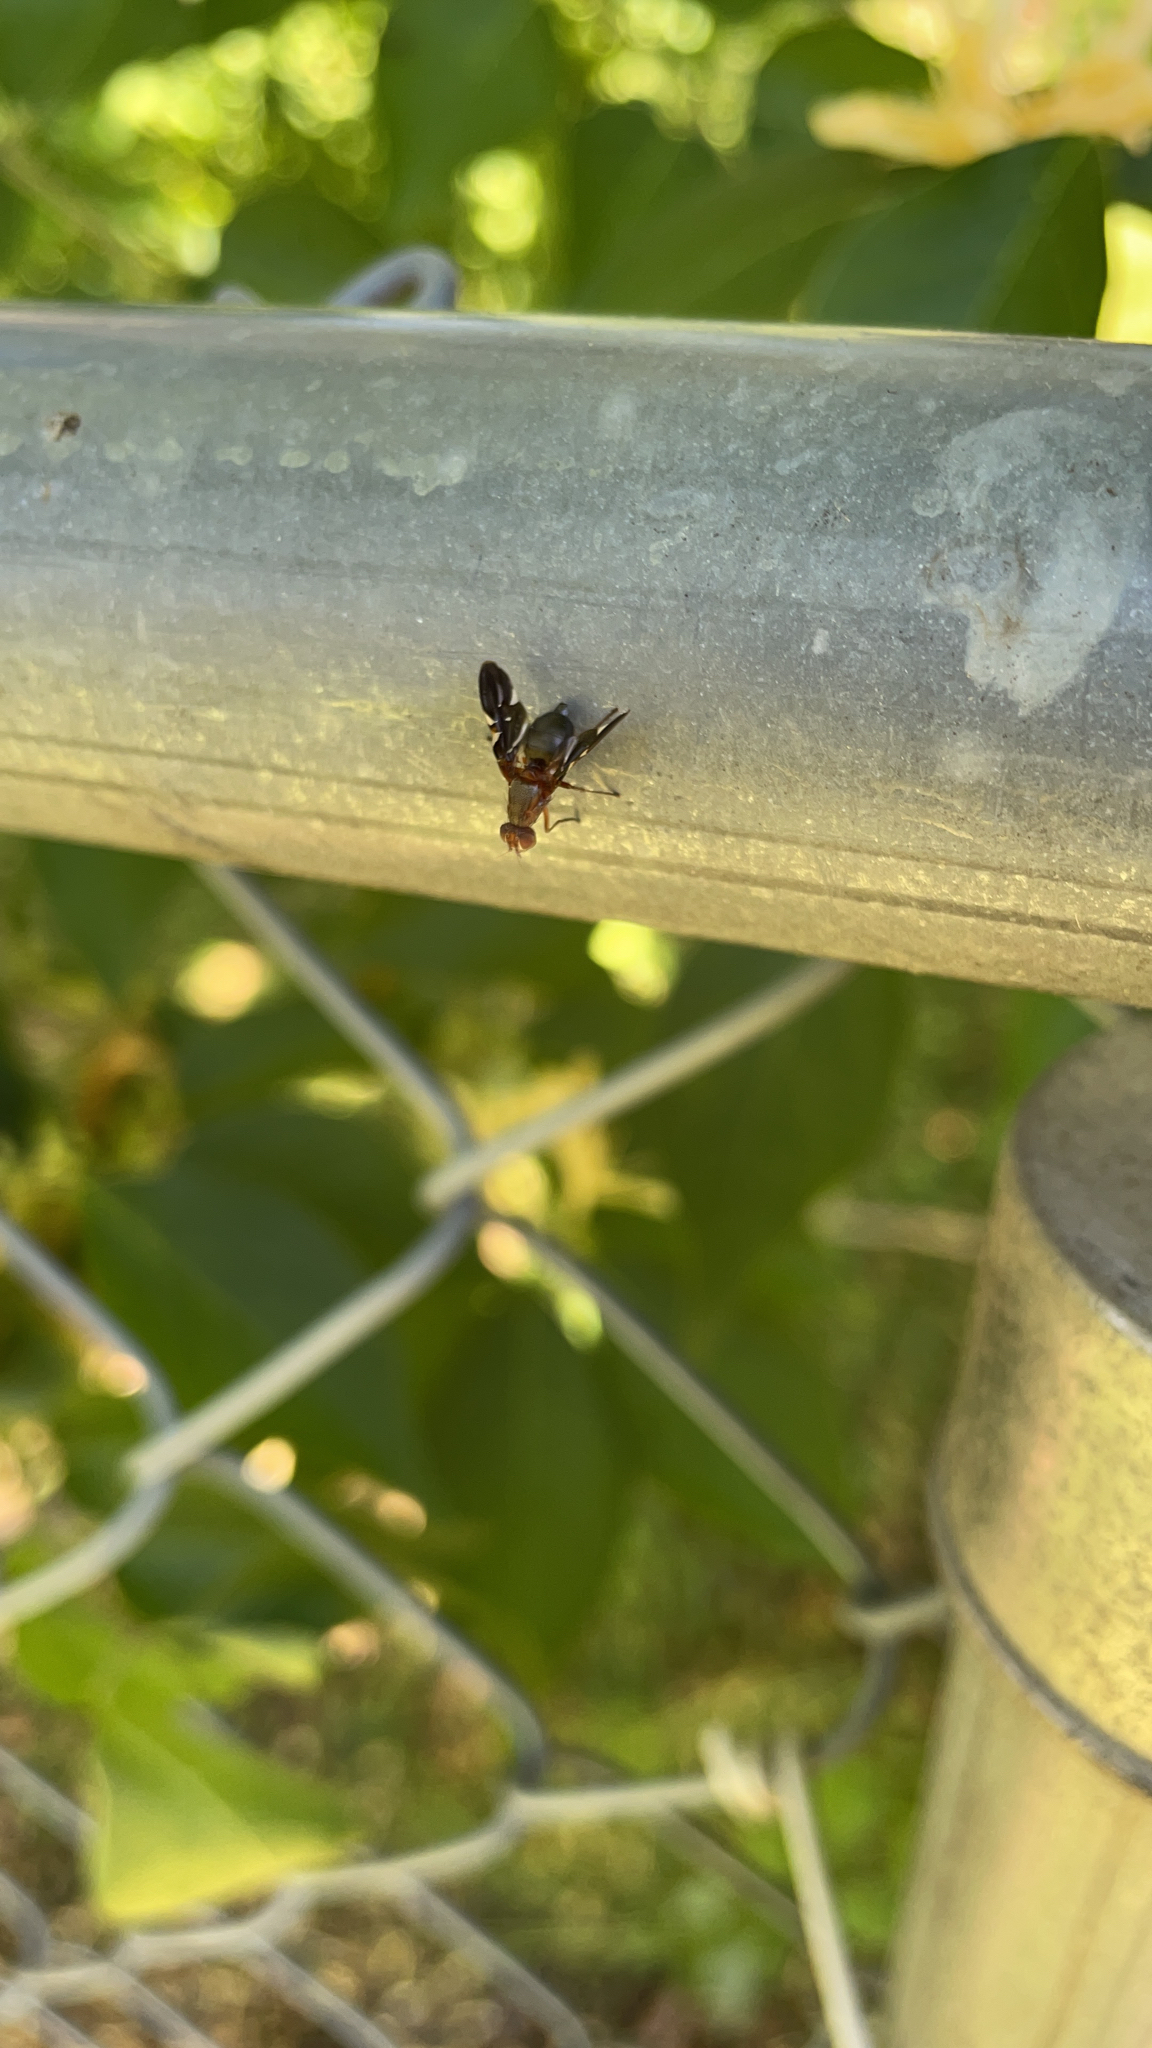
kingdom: Animalia
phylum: Arthropoda
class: Insecta
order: Diptera
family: Ulidiidae
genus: Delphinia
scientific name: Delphinia picta
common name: Common picture-winged fly
